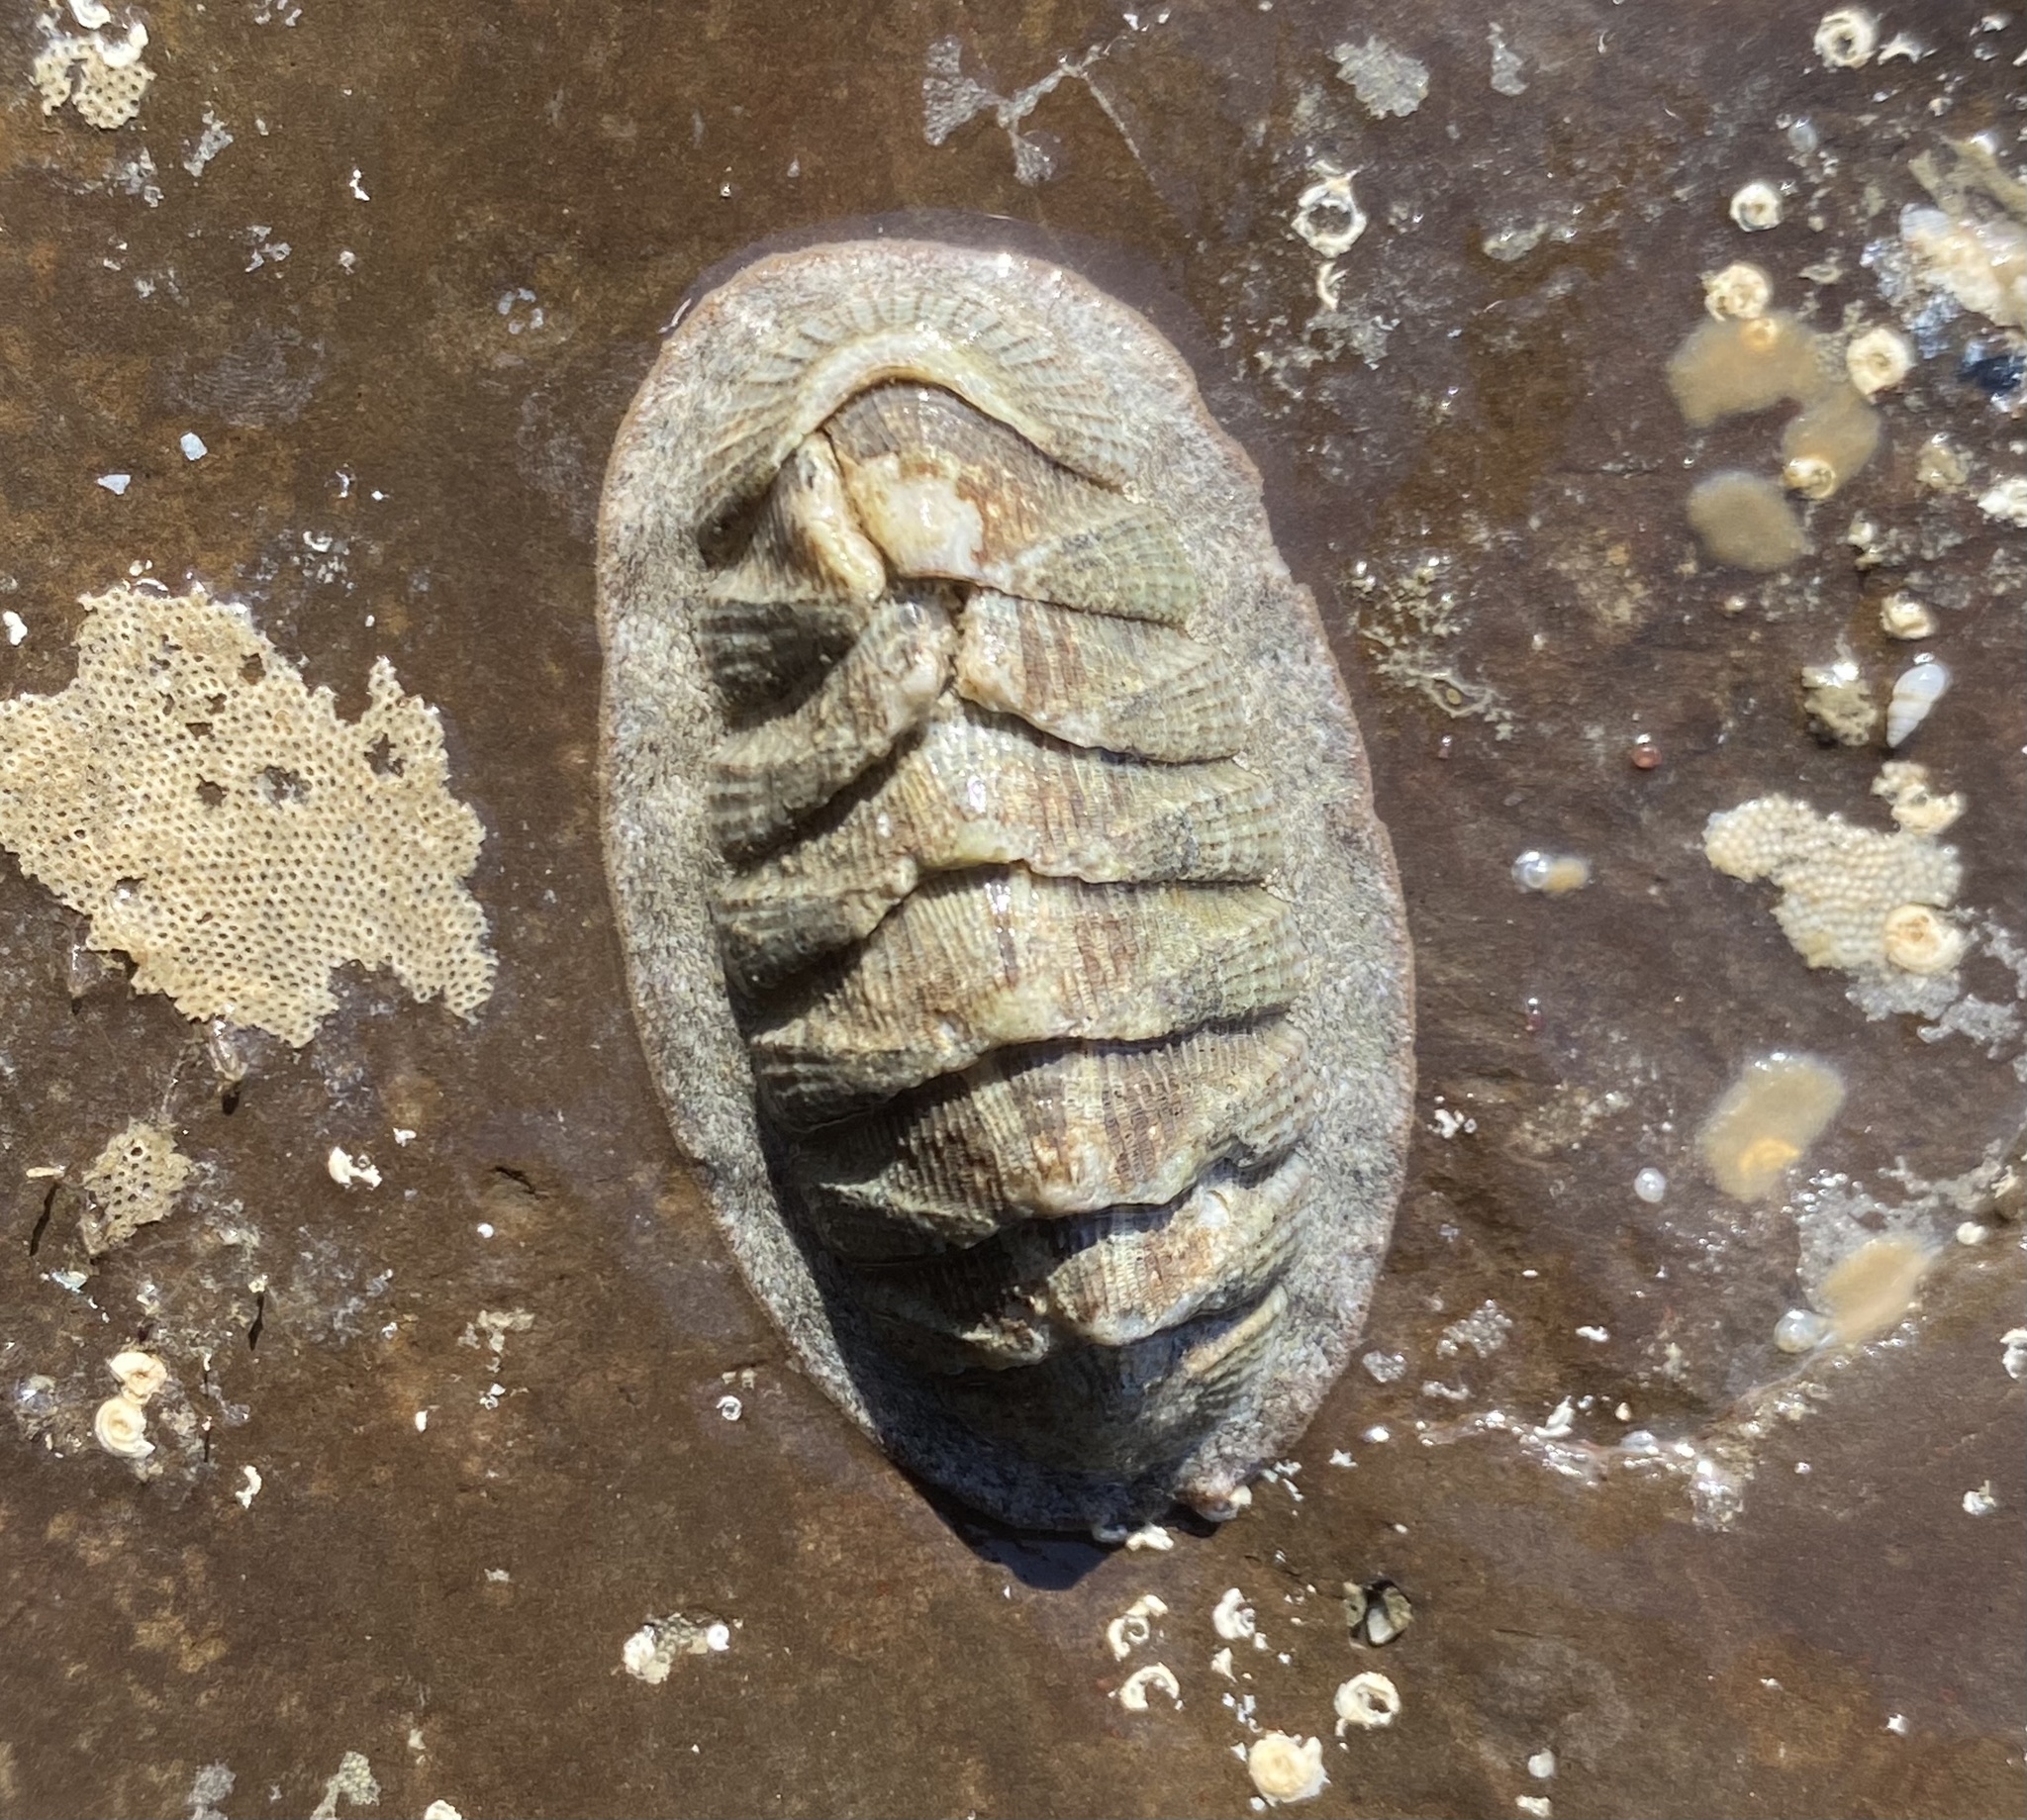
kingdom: Animalia
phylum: Mollusca
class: Polyplacophora
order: Chitonida
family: Ischnochitonidae
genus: Lepidozona
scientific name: Lepidozona cooperi
